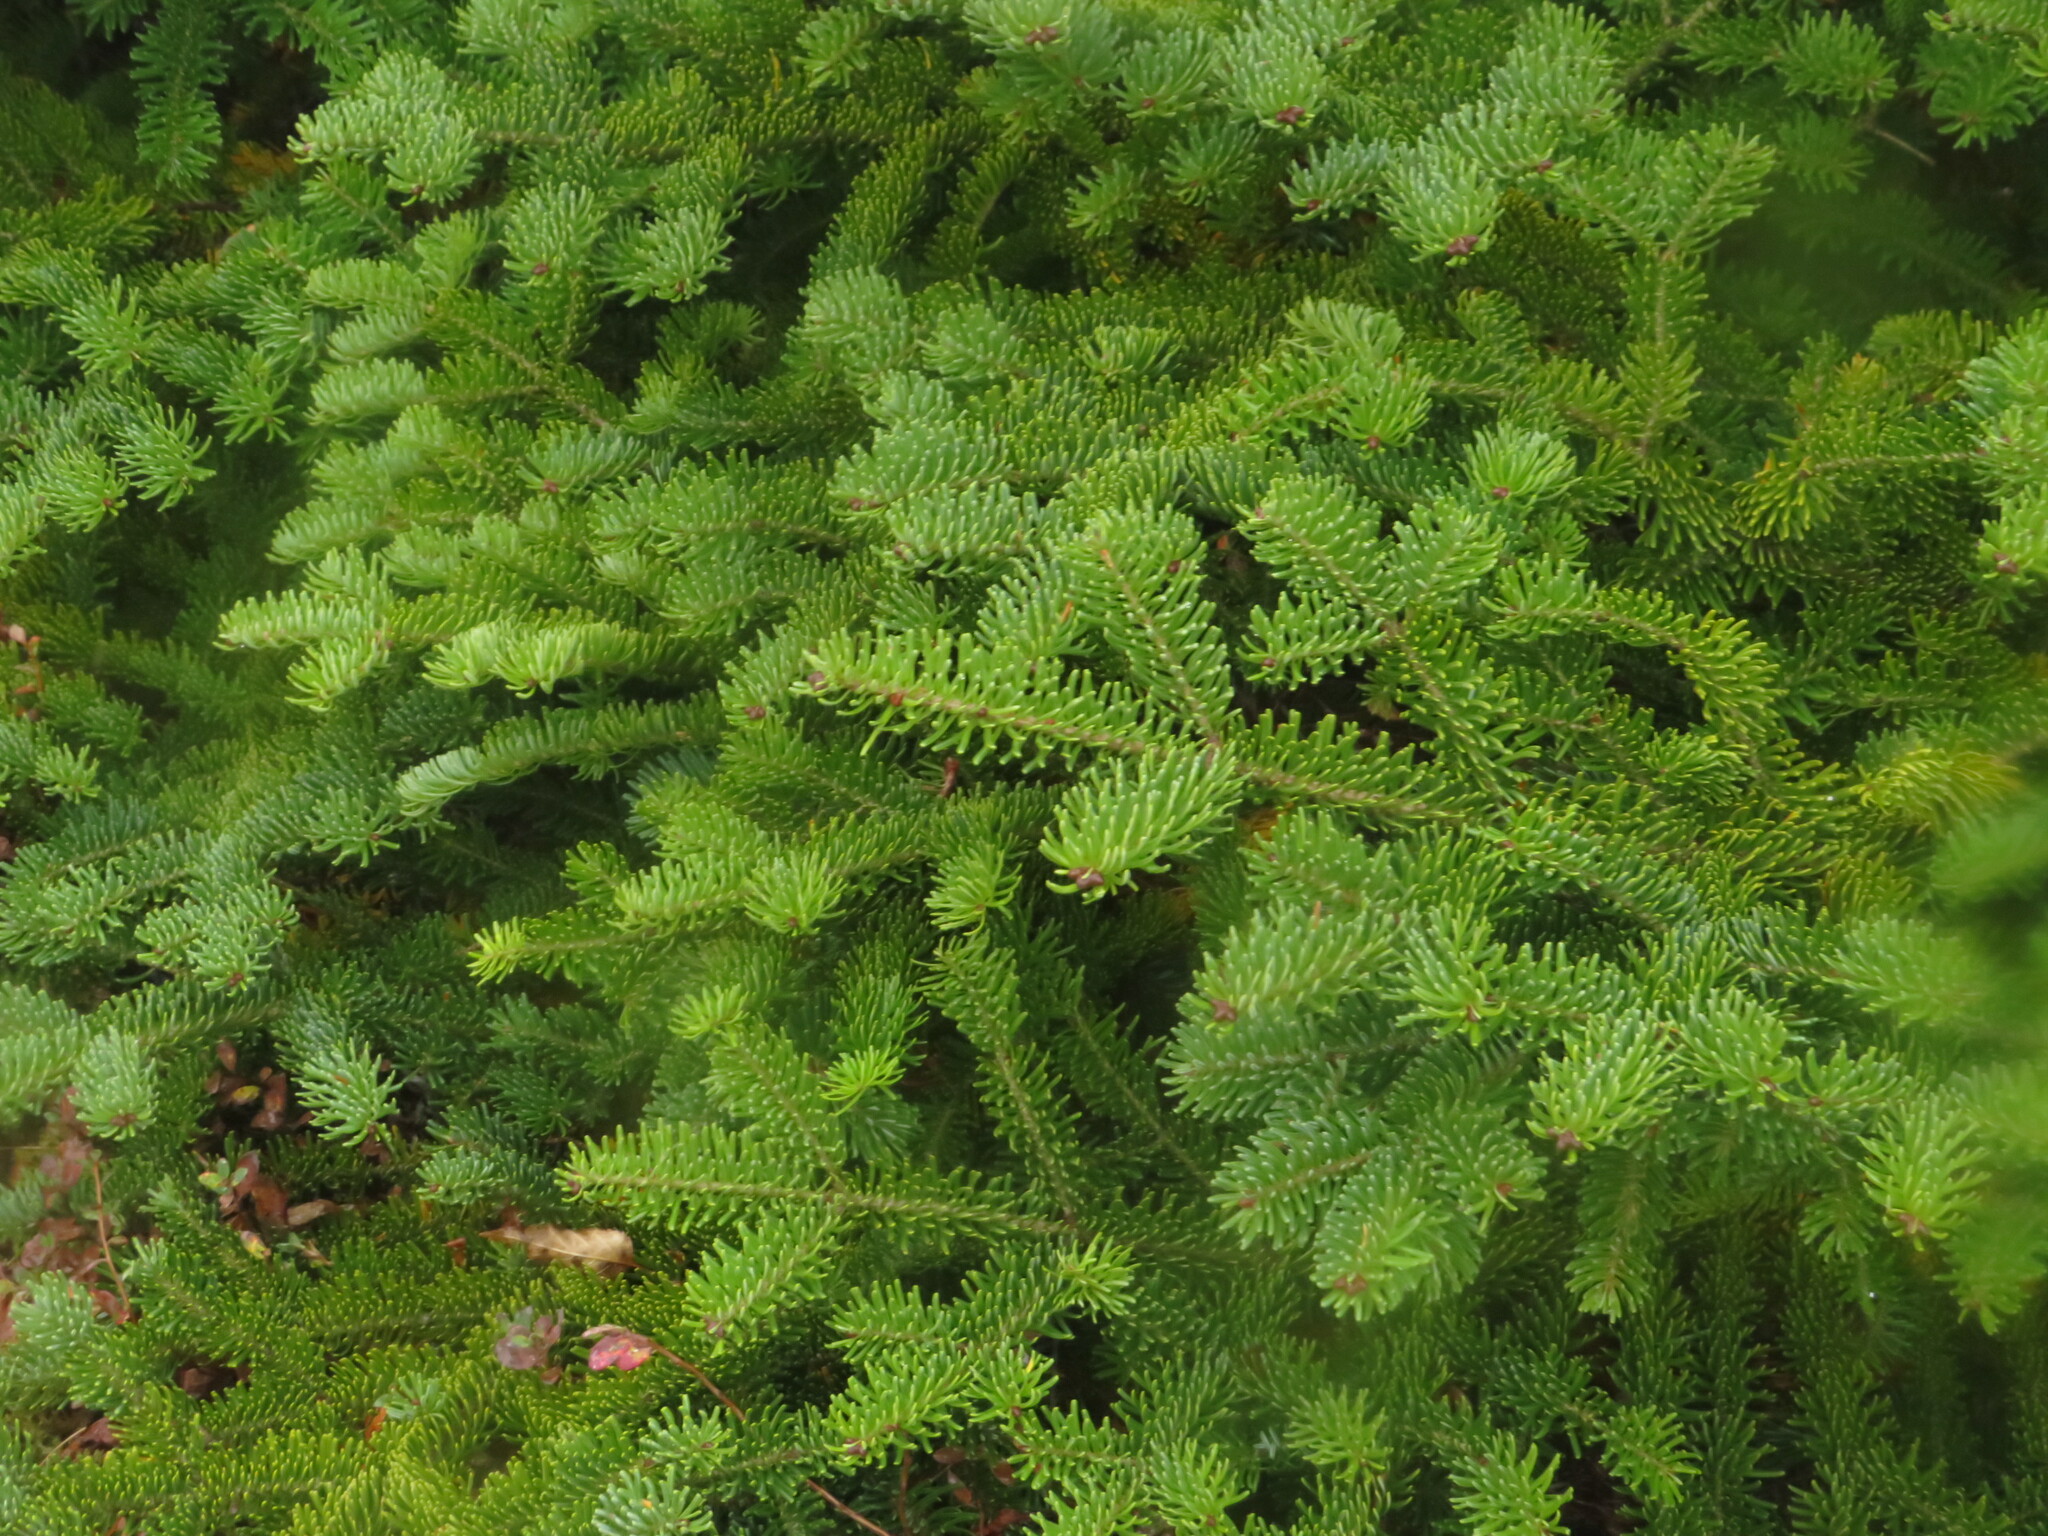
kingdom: Plantae
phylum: Tracheophyta
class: Pinopsida
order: Pinales
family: Pinaceae
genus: Abies
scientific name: Abies balsamea
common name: Balsam fir
